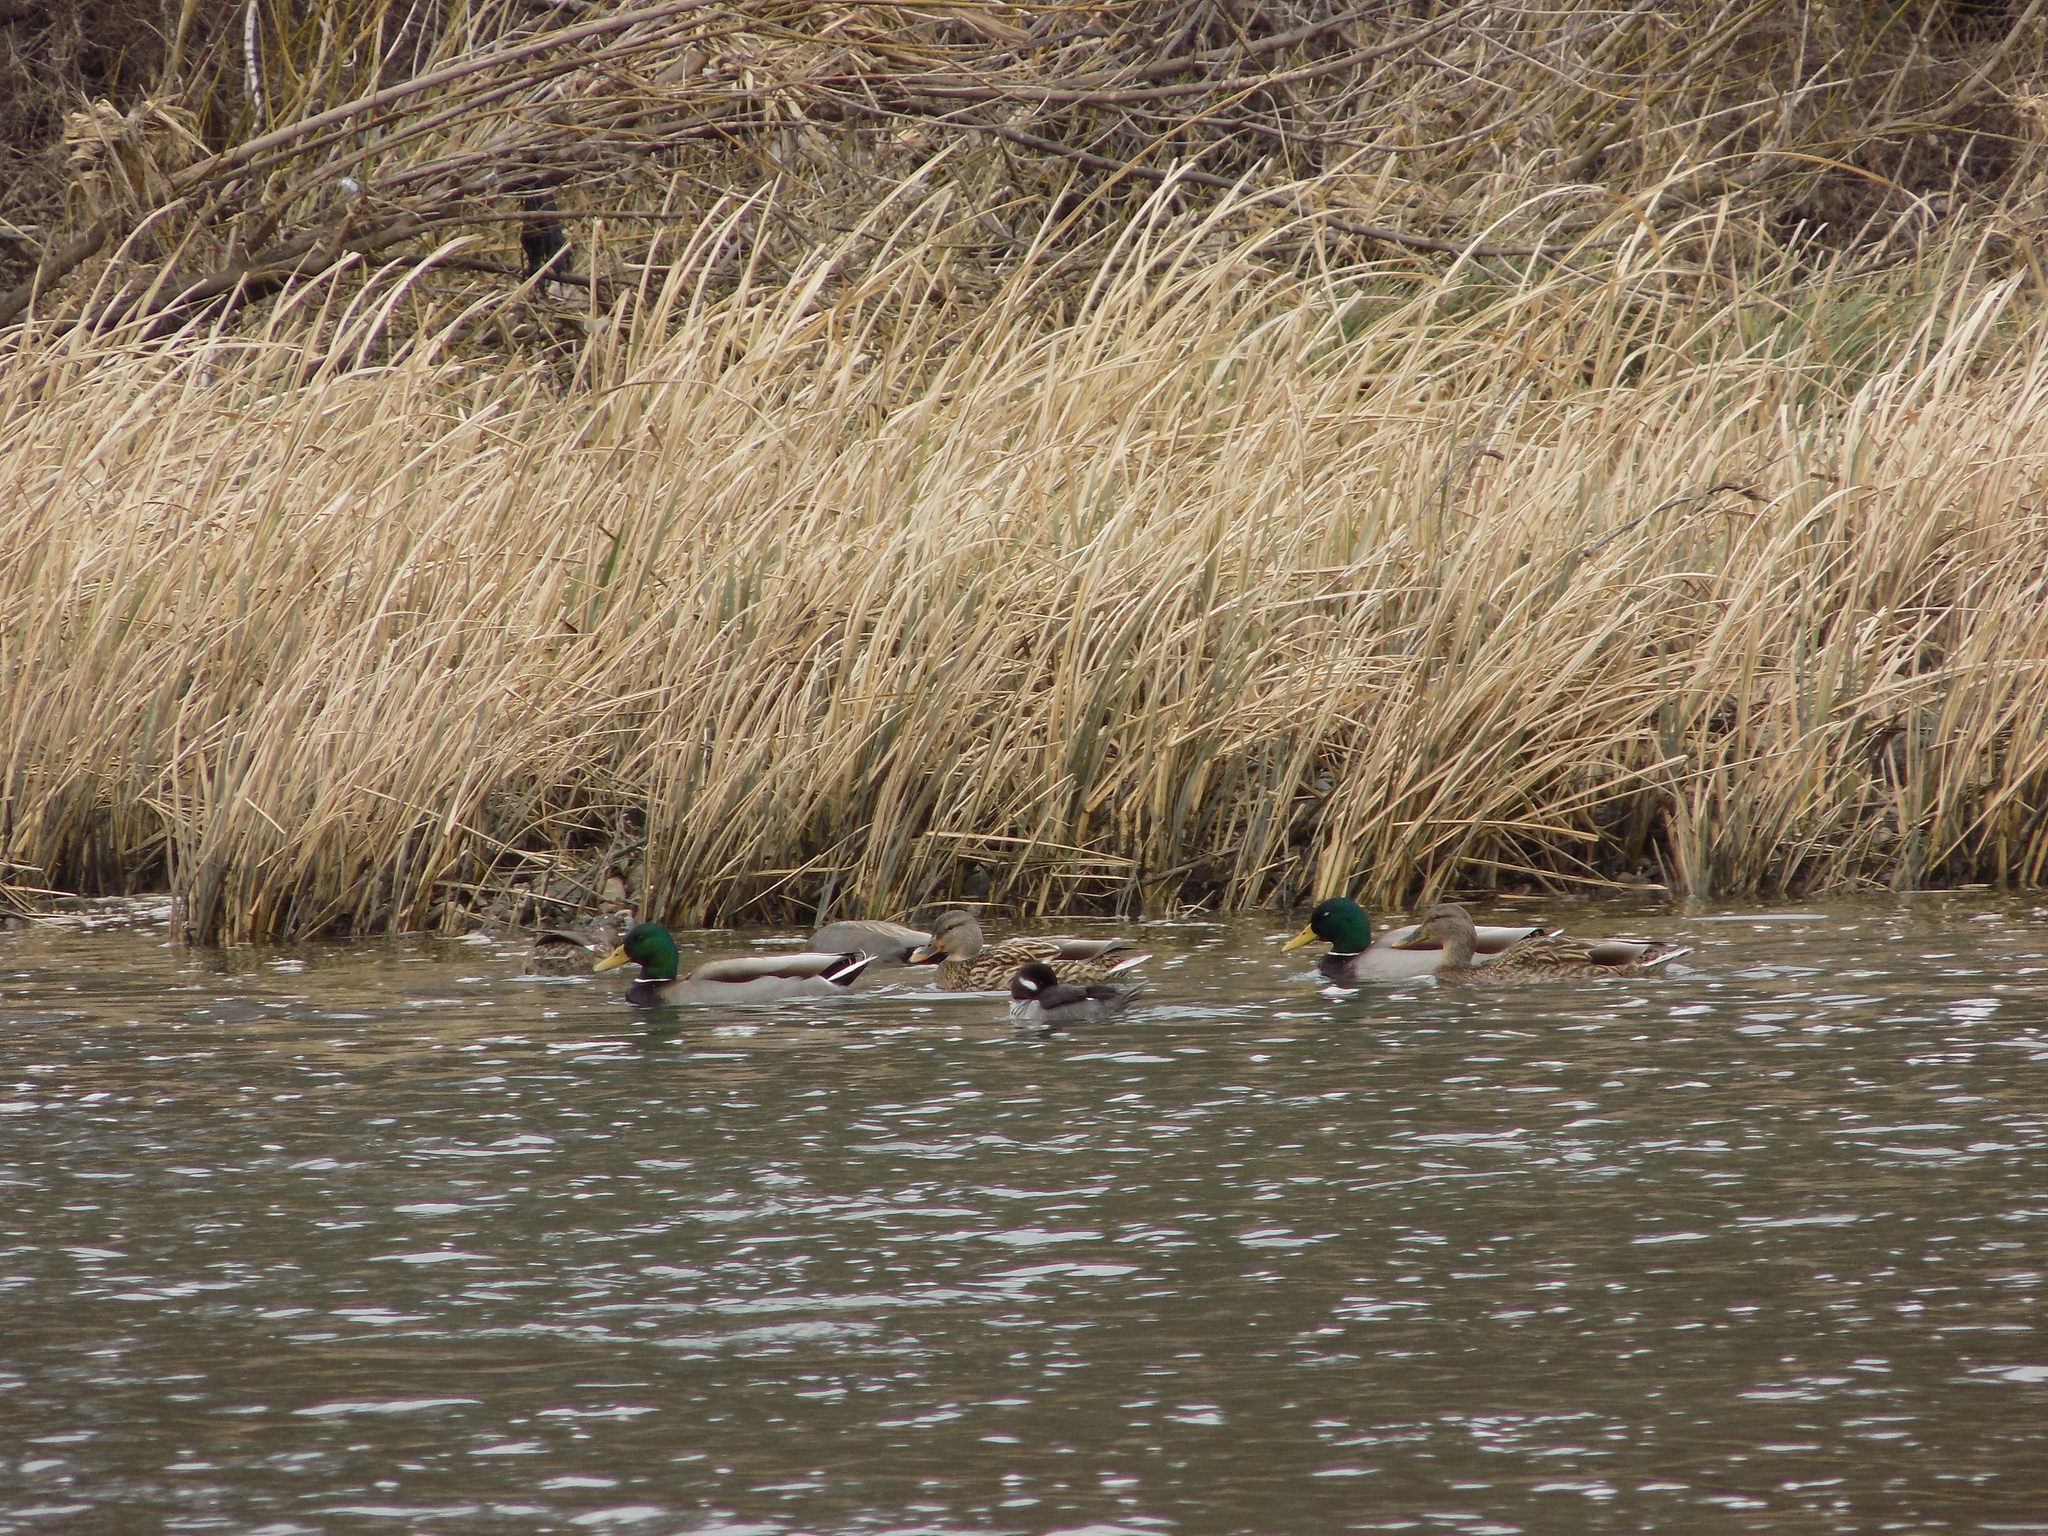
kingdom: Animalia
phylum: Chordata
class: Aves
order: Anseriformes
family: Anatidae
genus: Anas
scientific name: Anas platyrhynchos
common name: Mallard
